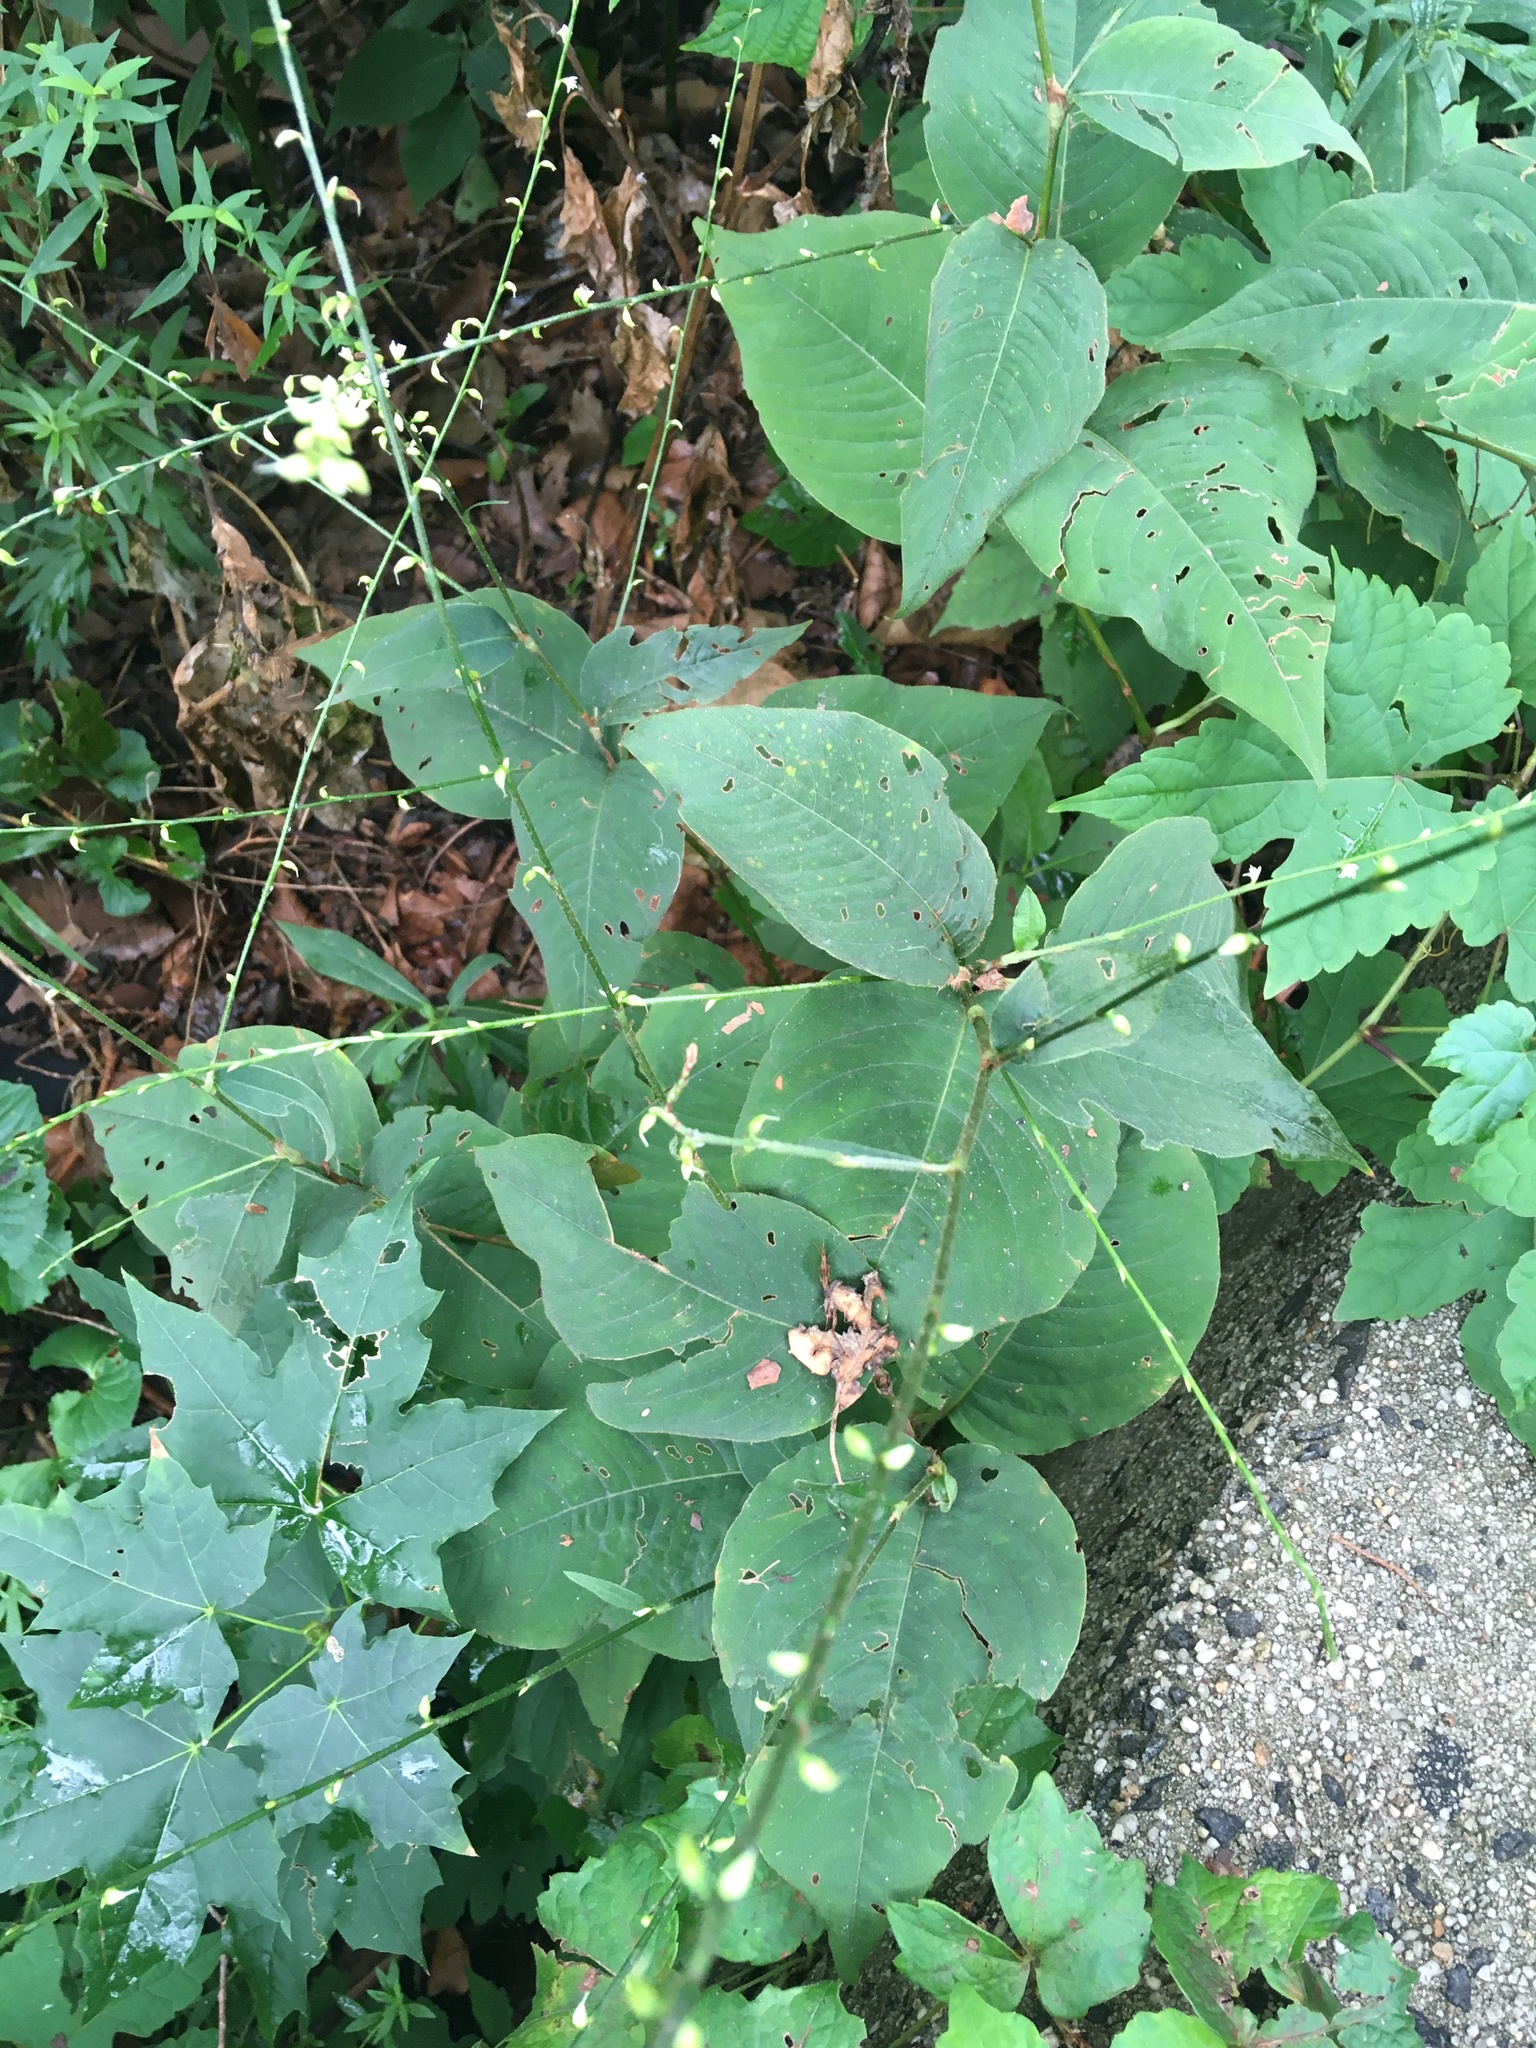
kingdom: Plantae
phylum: Tracheophyta
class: Magnoliopsida
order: Caryophyllales
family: Polygonaceae
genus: Persicaria
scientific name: Persicaria virginiana
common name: Jumpseed
